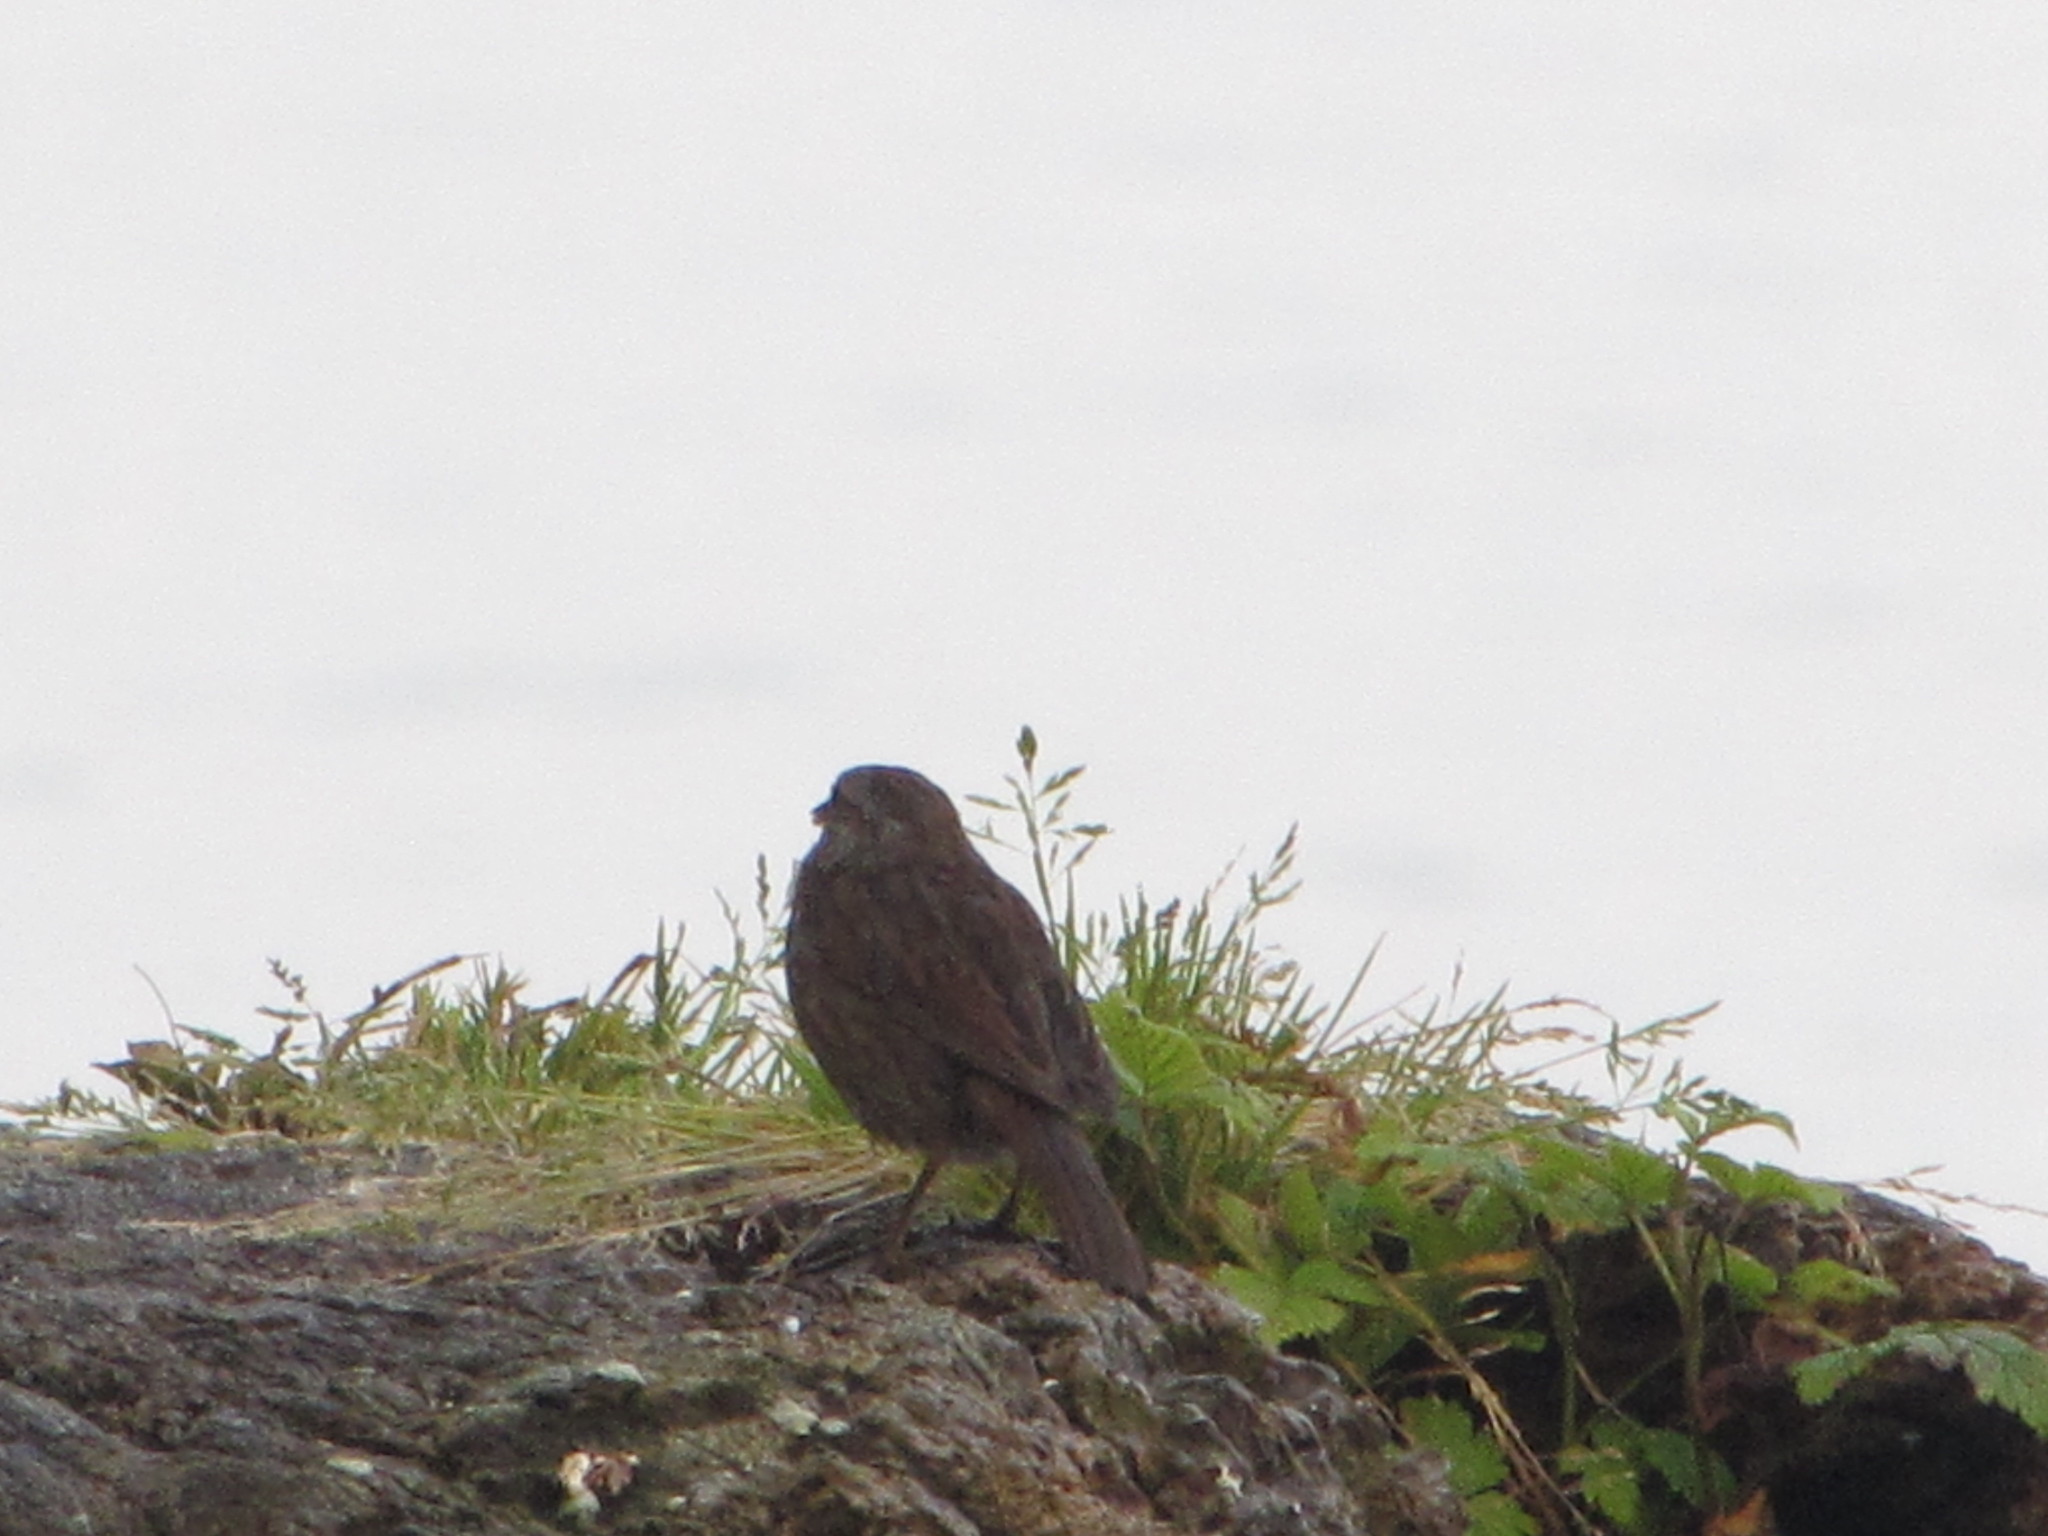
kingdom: Animalia
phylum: Chordata
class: Aves
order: Passeriformes
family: Passerellidae
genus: Melospiza
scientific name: Melospiza melodia
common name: Song sparrow
